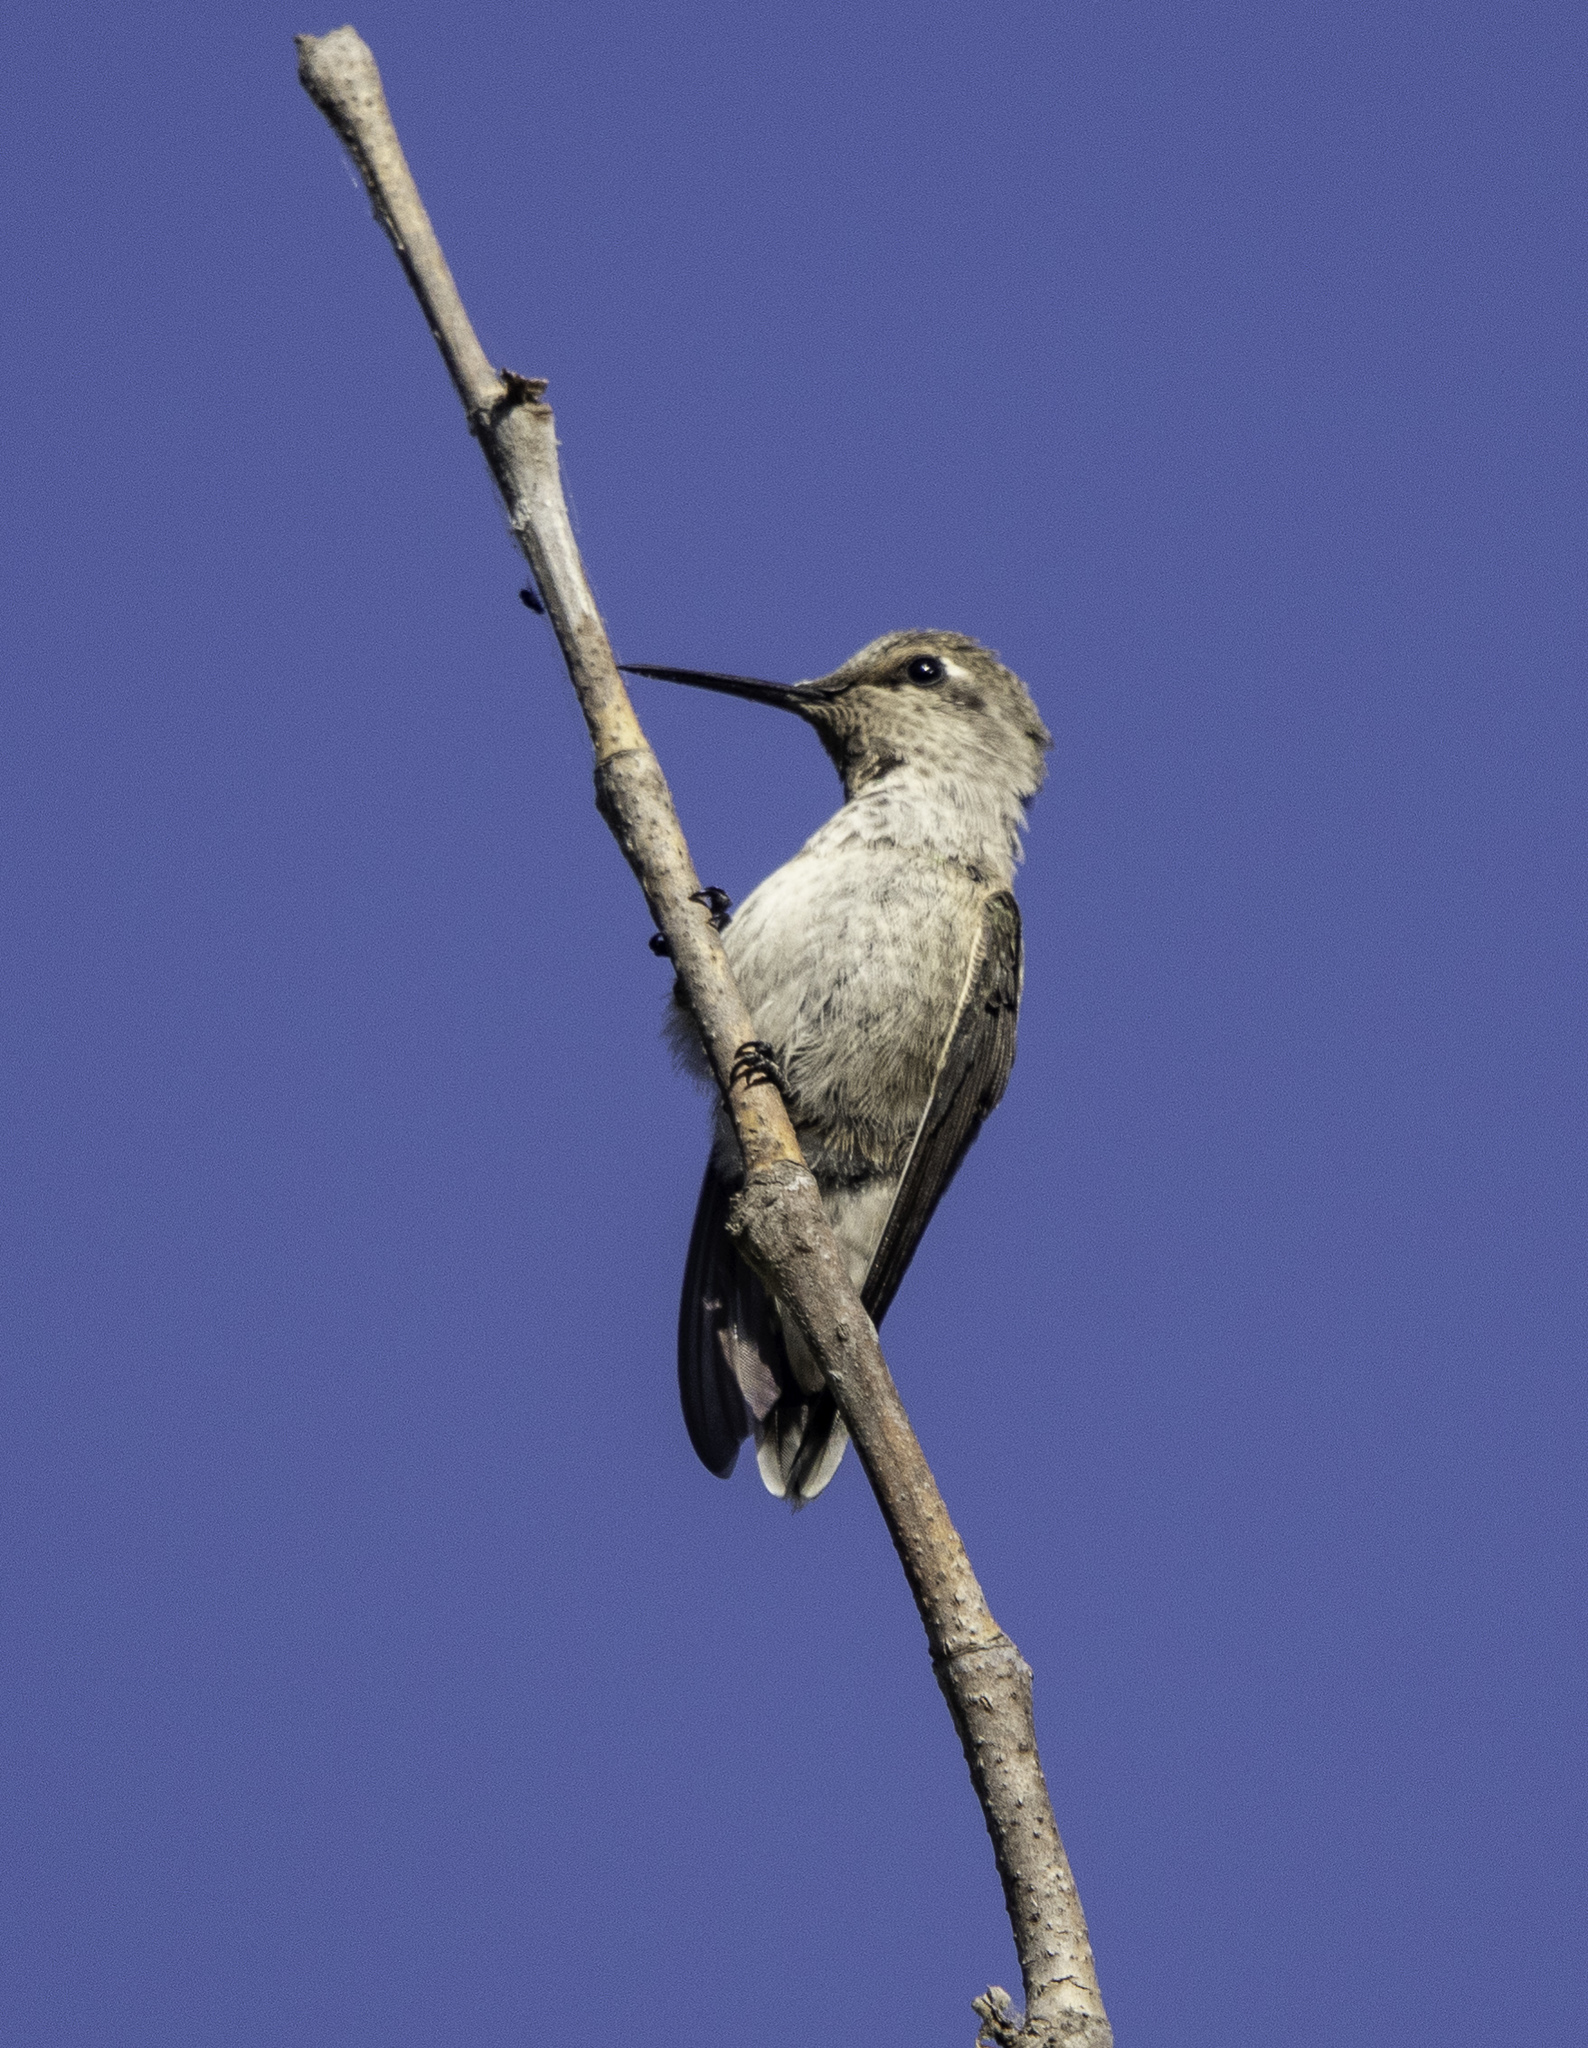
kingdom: Animalia
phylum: Chordata
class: Aves
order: Apodiformes
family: Trochilidae
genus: Calypte
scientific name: Calypte costae
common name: Costa's hummingbird
